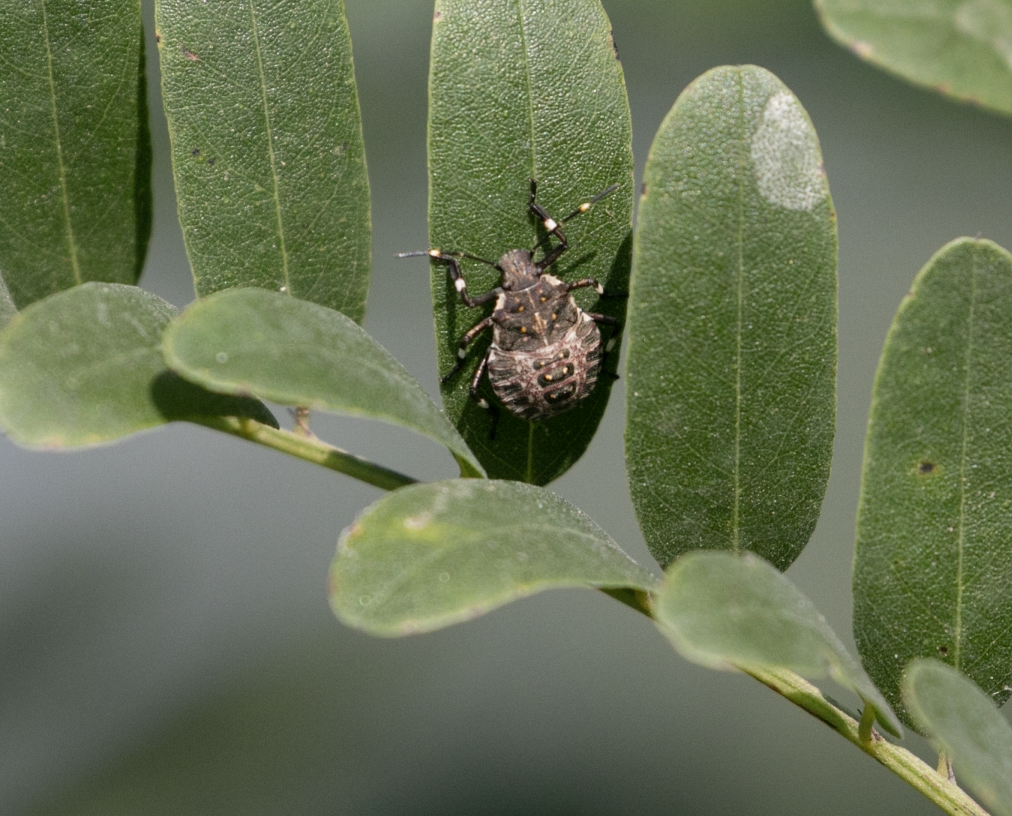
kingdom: Animalia
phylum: Arthropoda
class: Insecta
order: Hemiptera
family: Pentatomidae
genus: Halyomorpha
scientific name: Halyomorpha halys
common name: Brown marmorated stink bug
